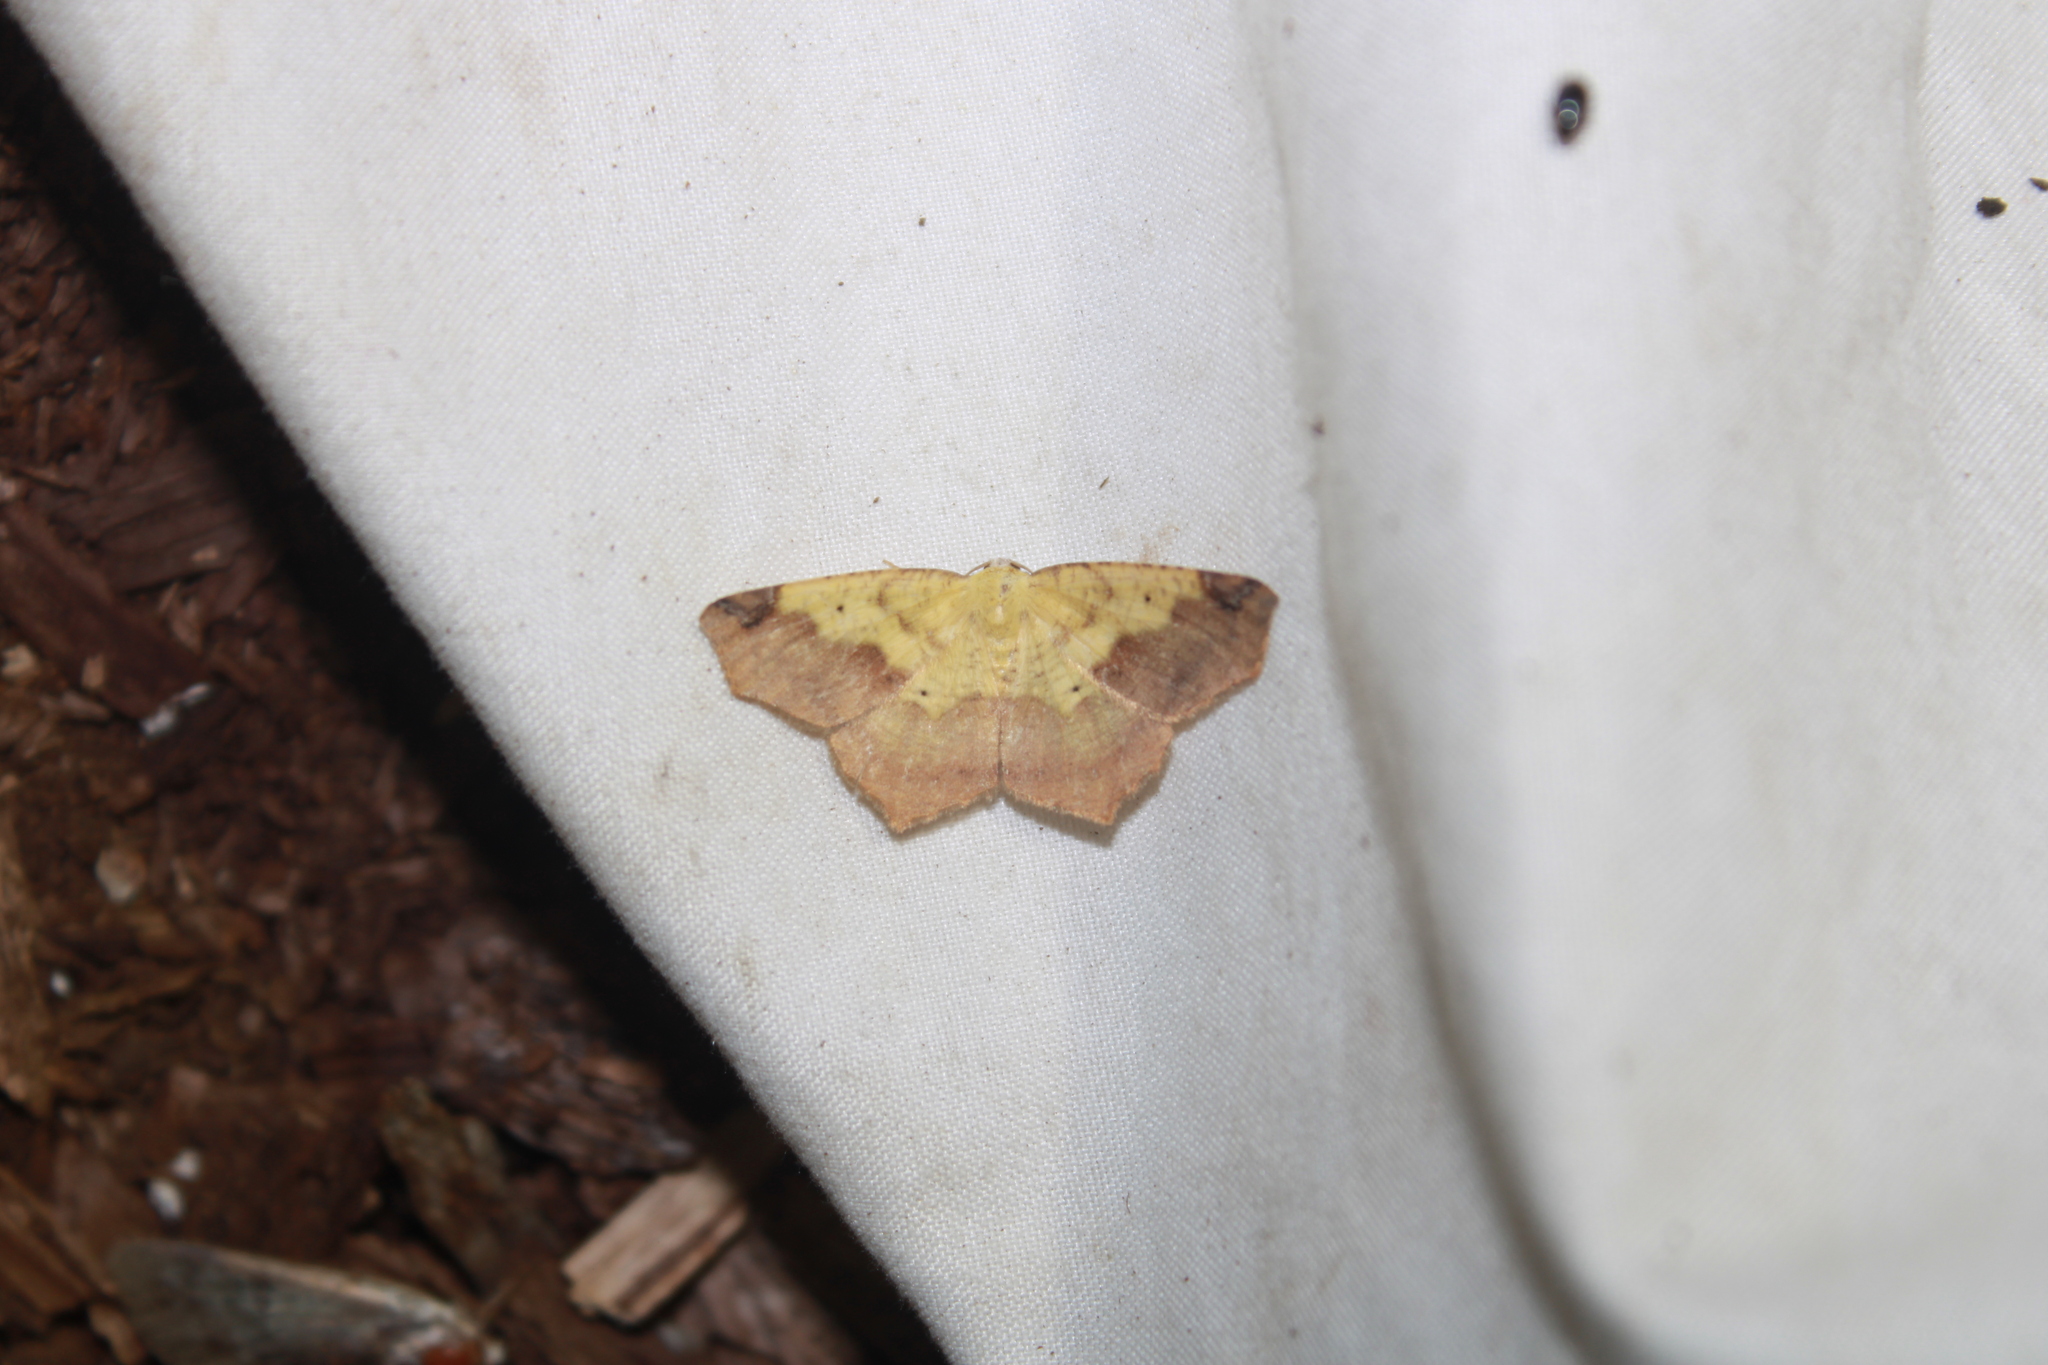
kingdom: Animalia
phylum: Arthropoda
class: Insecta
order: Lepidoptera
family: Geometridae
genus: Antepione
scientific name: Antepione thisoaria
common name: Variable antipione
